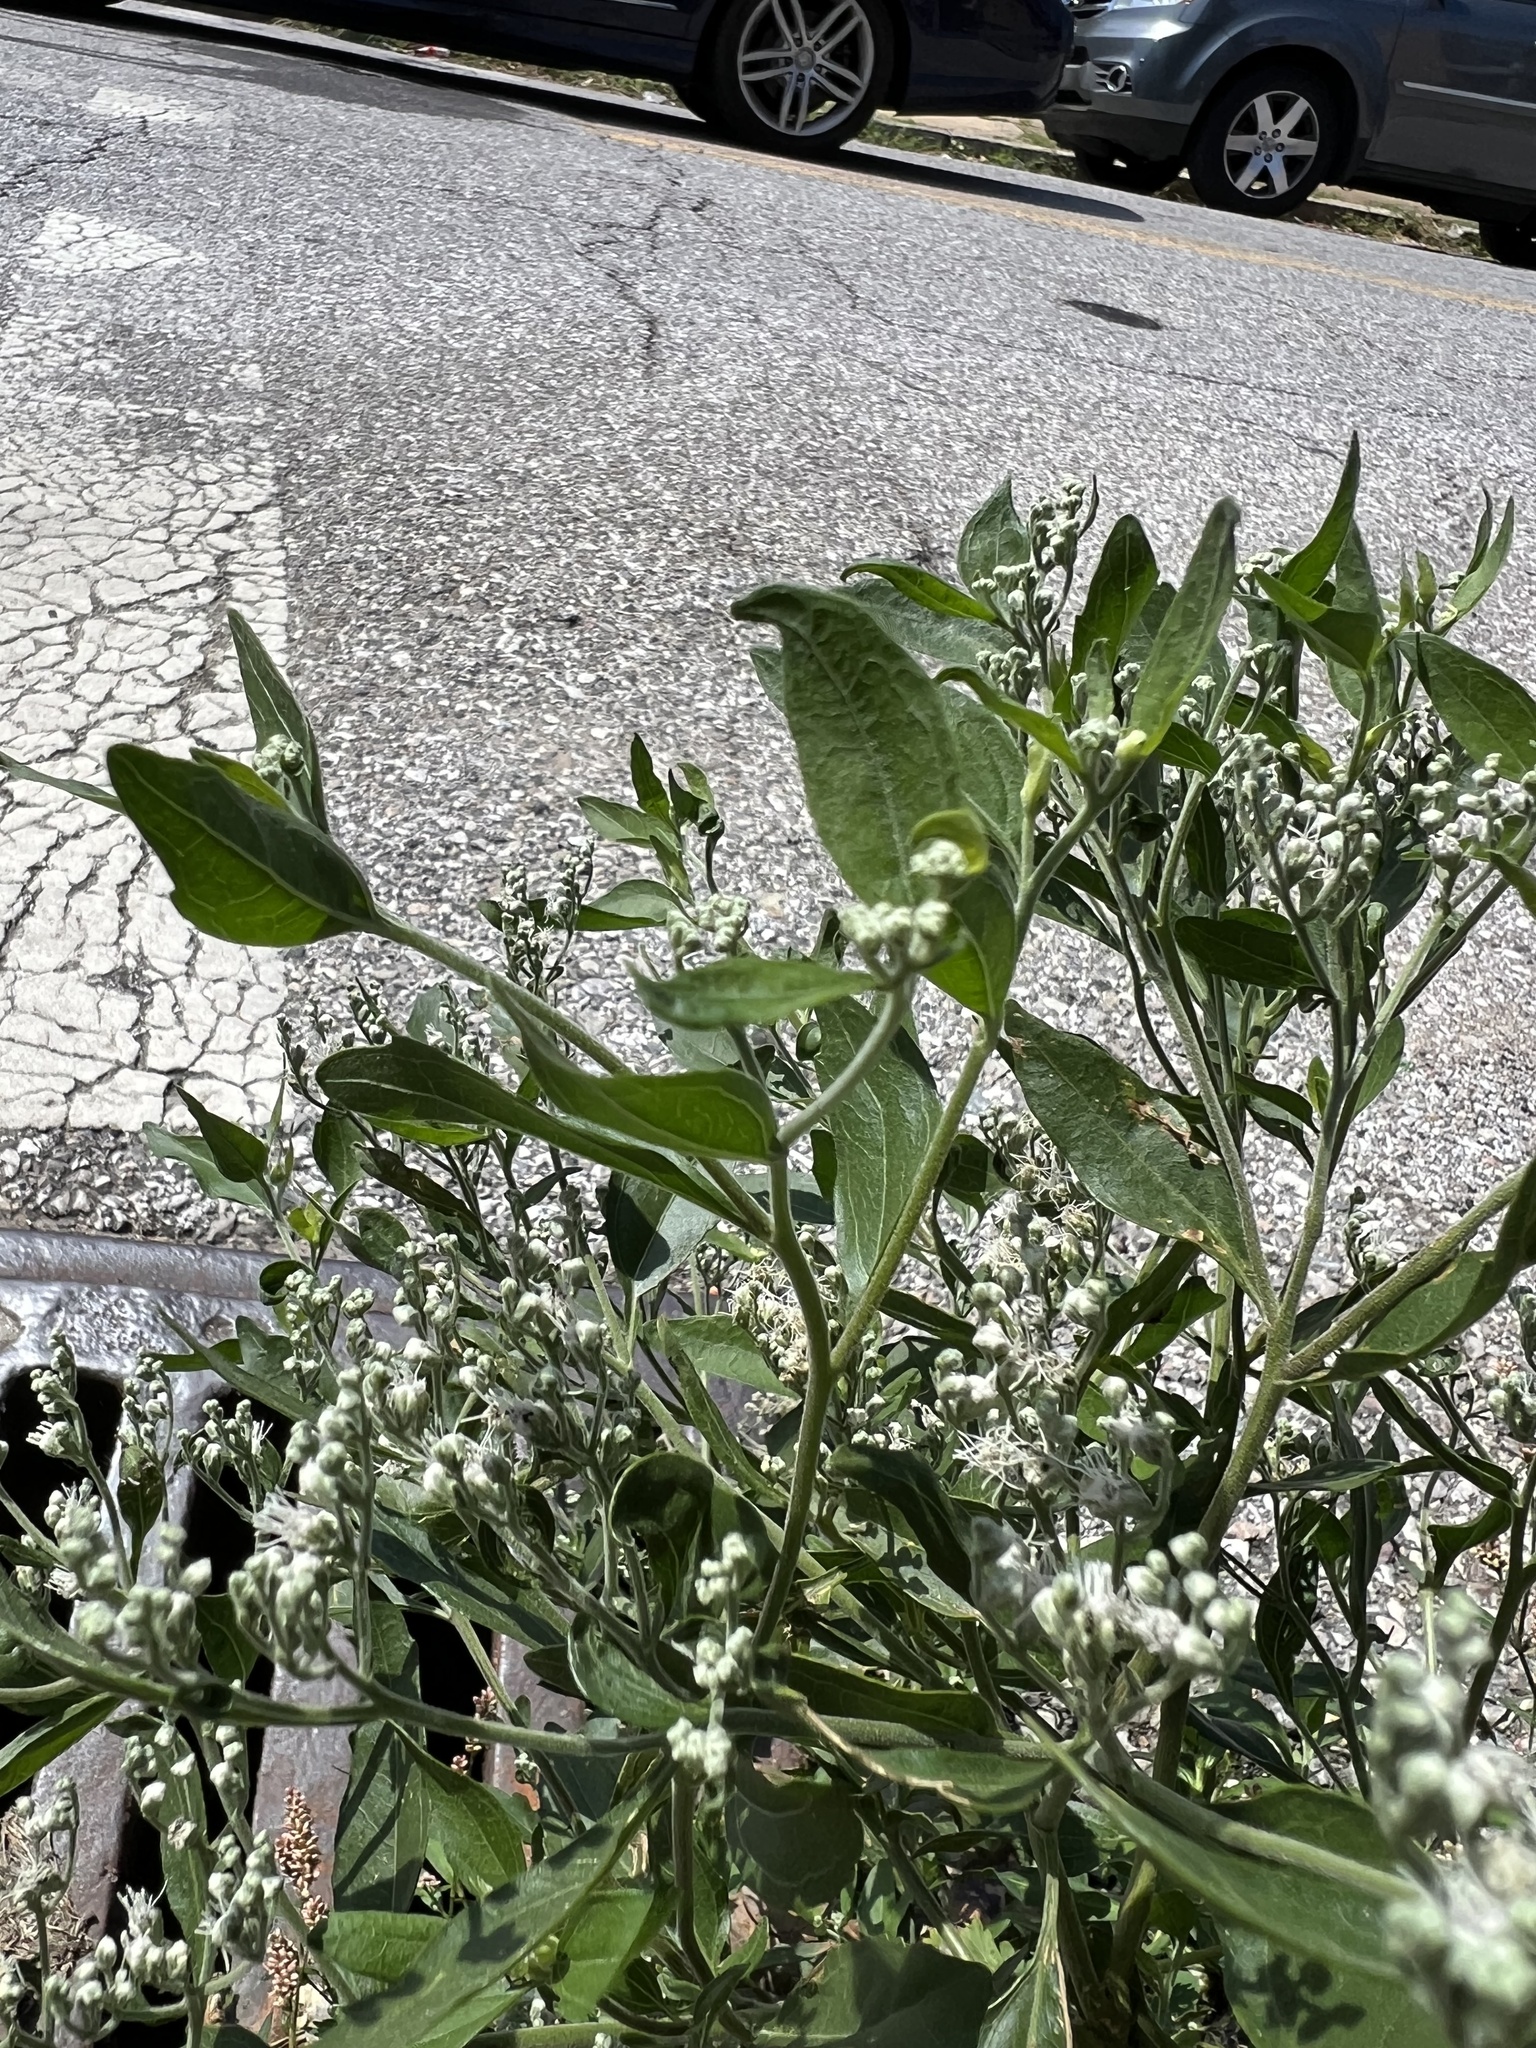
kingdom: Plantae
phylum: Tracheophyta
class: Magnoliopsida
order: Asterales
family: Asteraceae
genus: Eupatorium
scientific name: Eupatorium serotinum
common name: Late boneset
